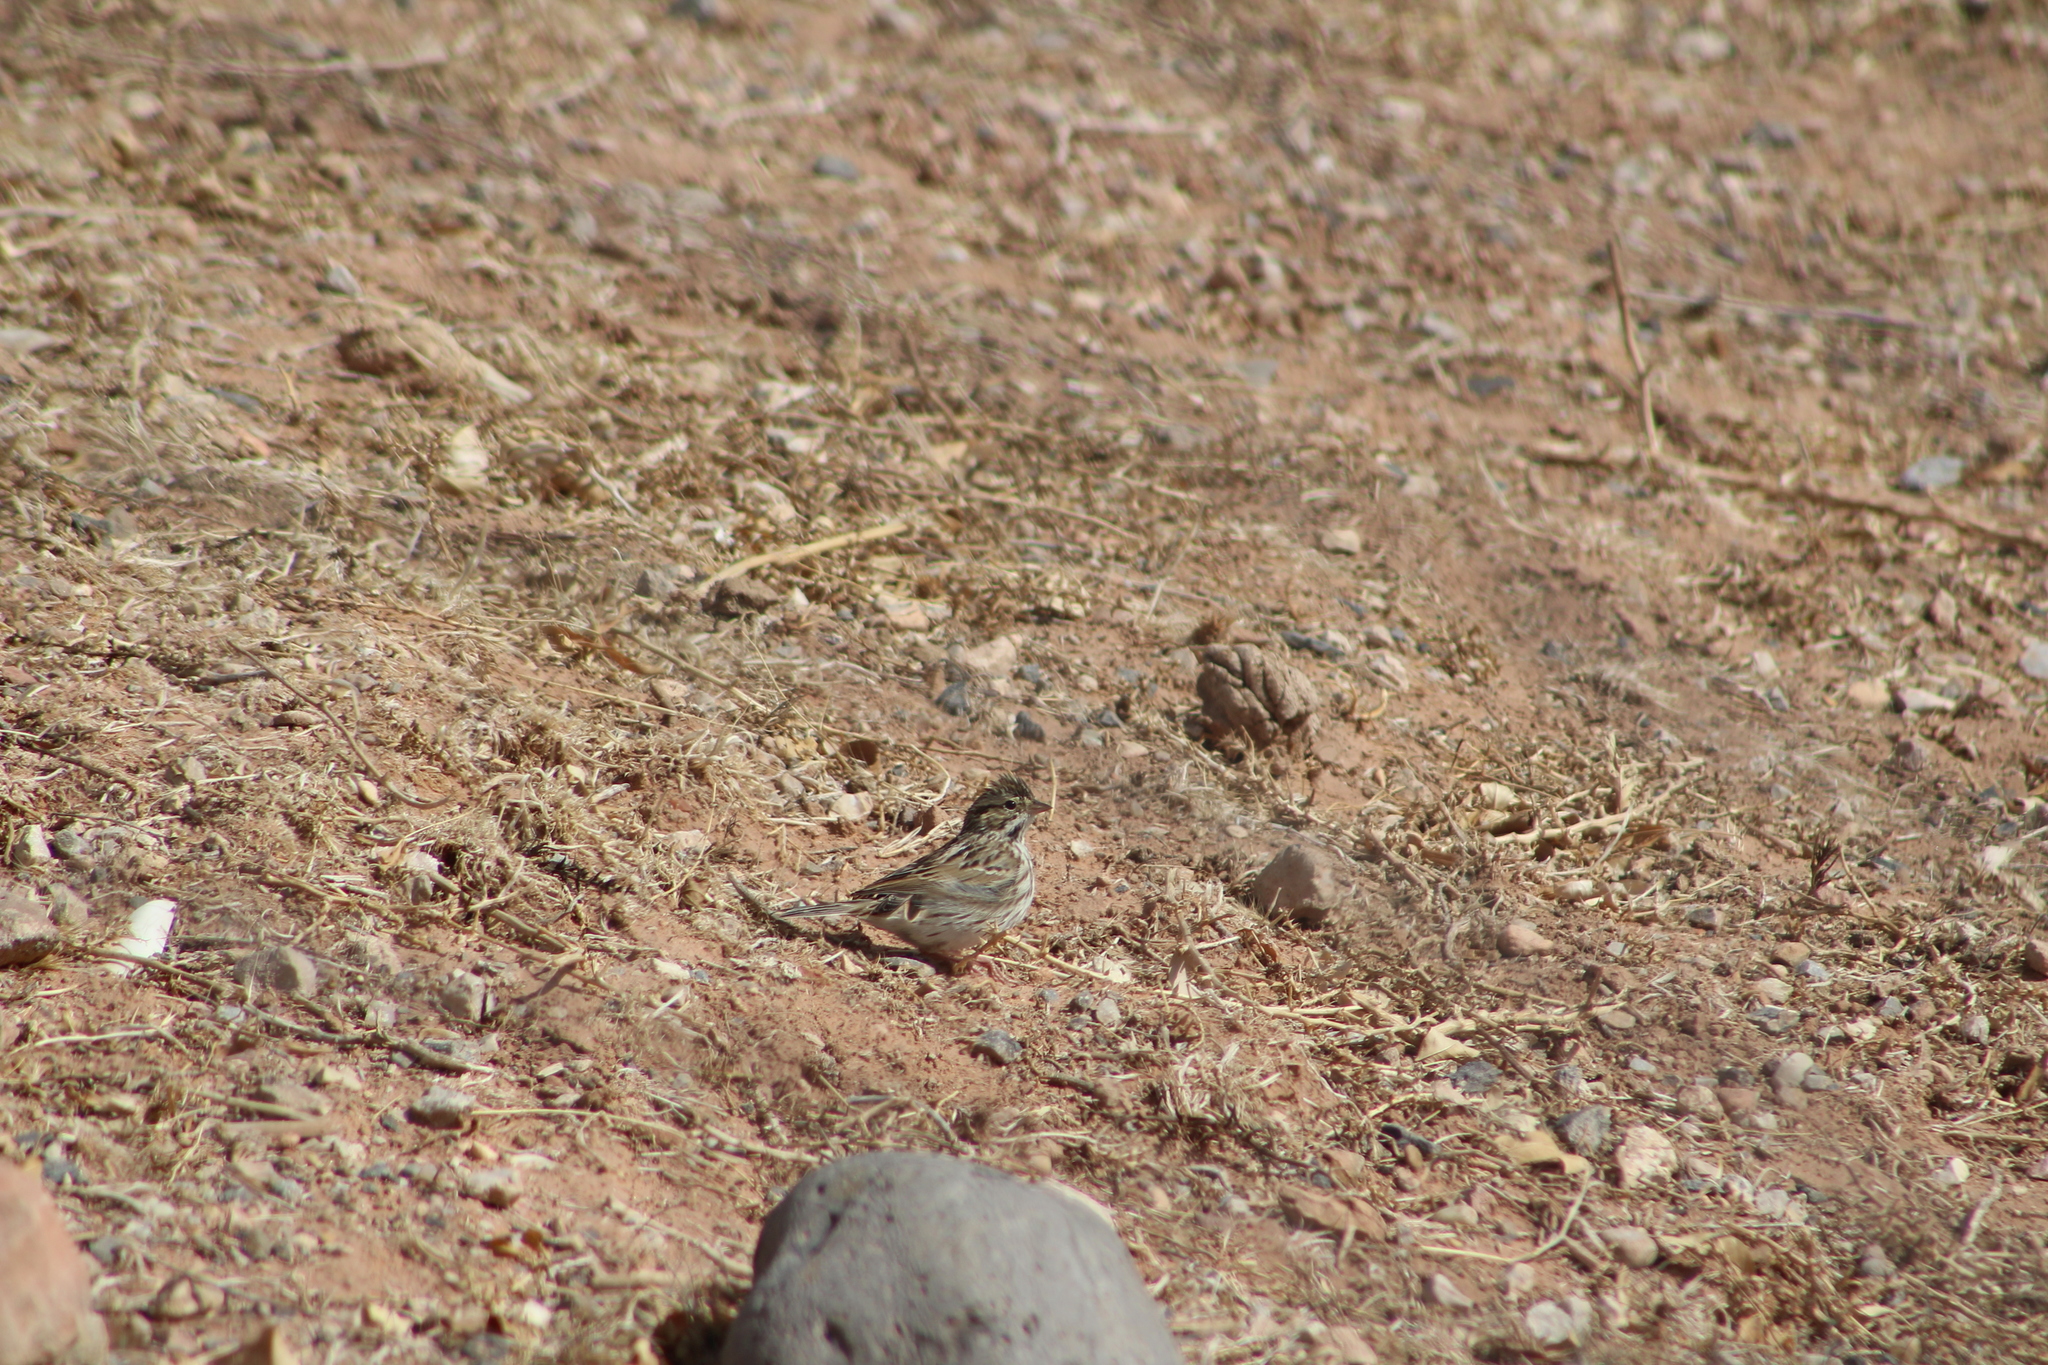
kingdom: Animalia
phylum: Chordata
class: Aves
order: Passeriformes
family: Passerellidae
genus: Passerculus
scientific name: Passerculus sandwichensis
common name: Savannah sparrow
